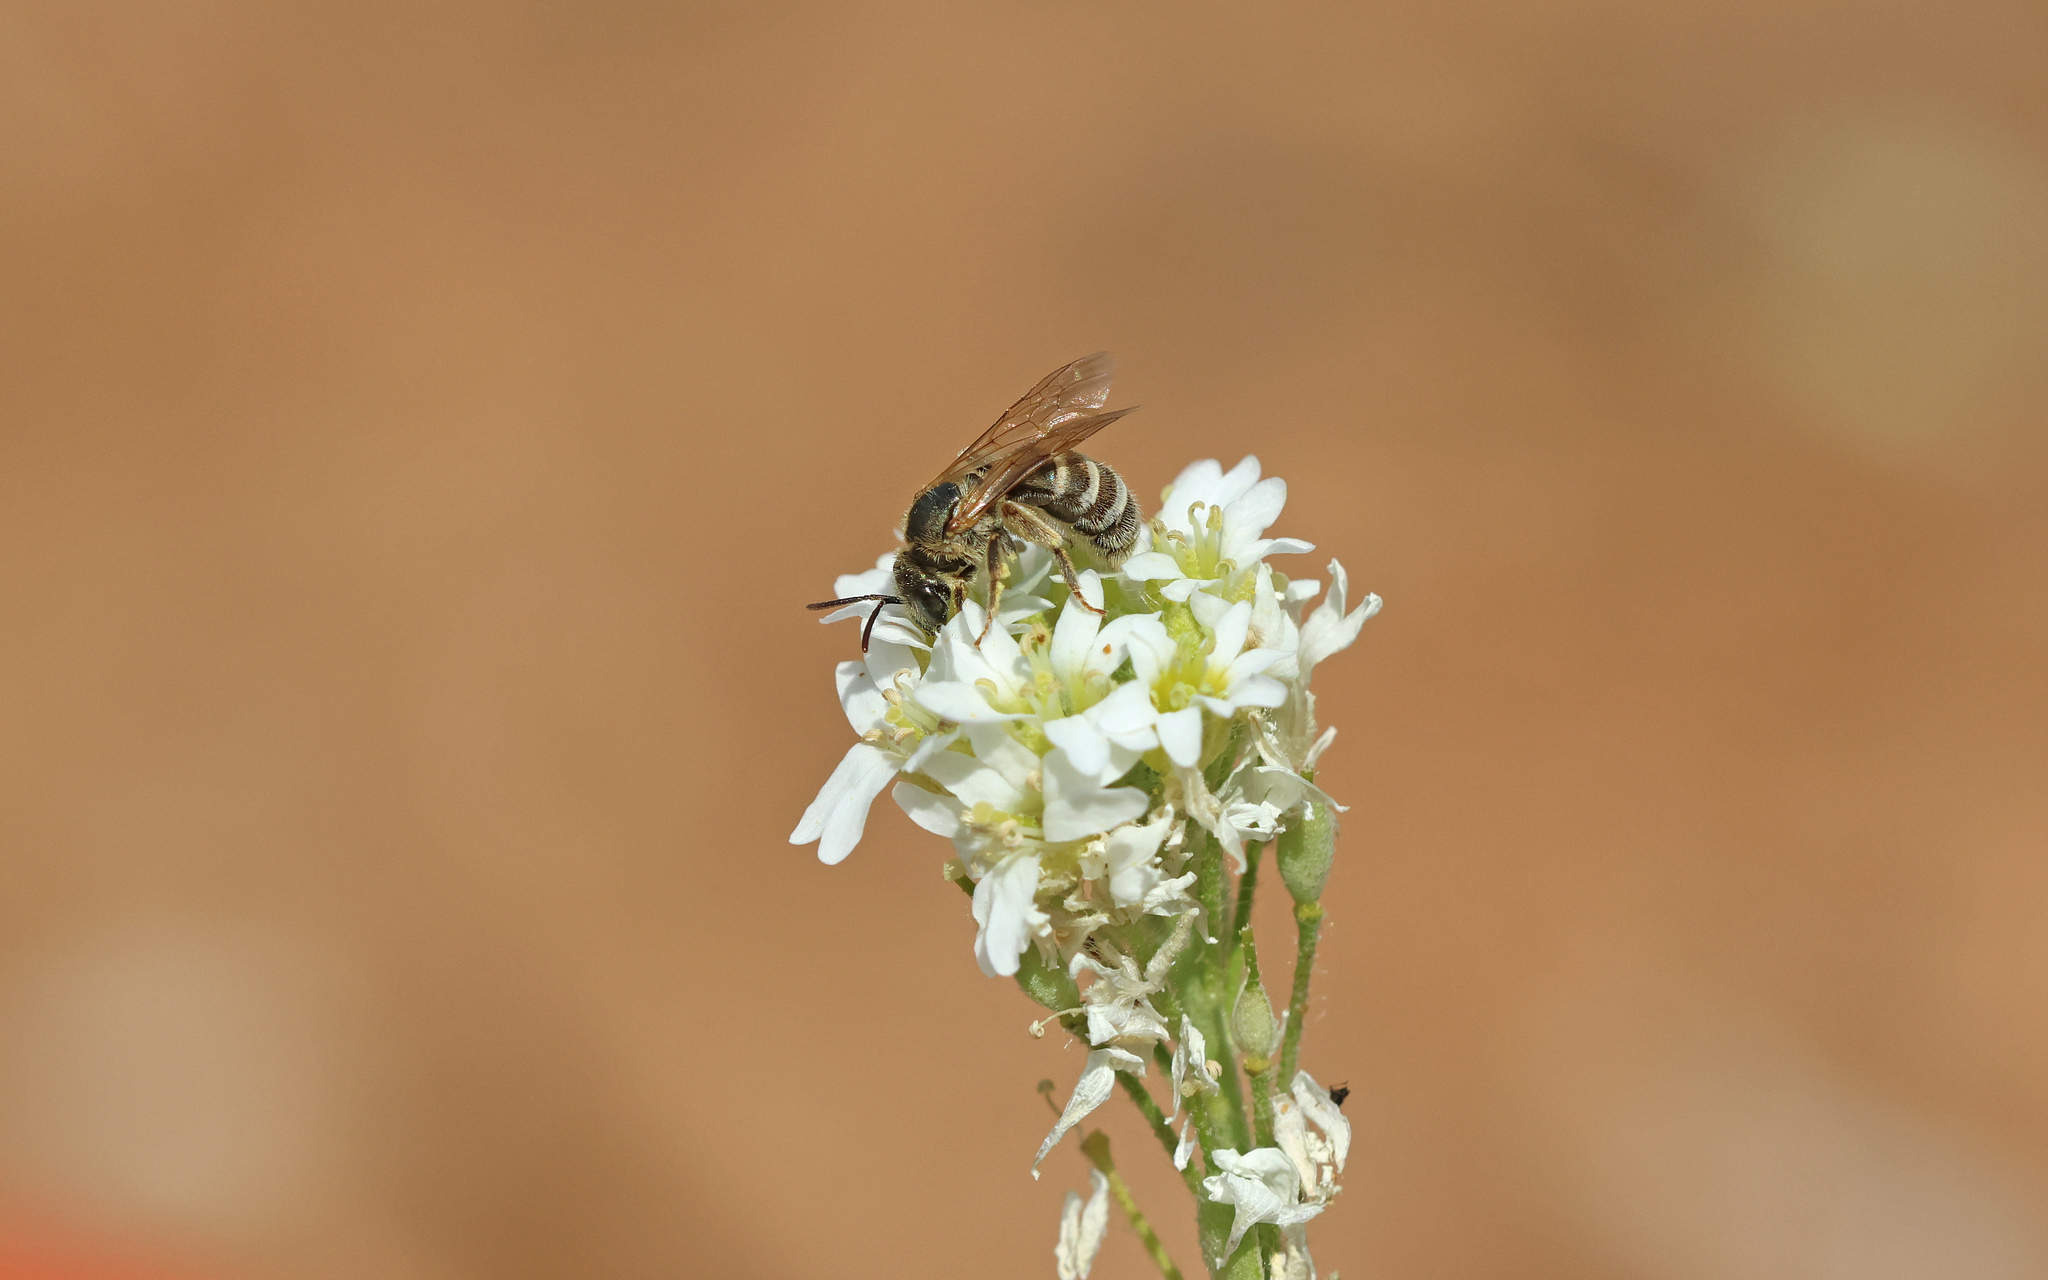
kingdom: Animalia
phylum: Arthropoda
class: Insecta
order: Hymenoptera
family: Halictidae
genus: Halictus
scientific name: Halictus leucaheneus
